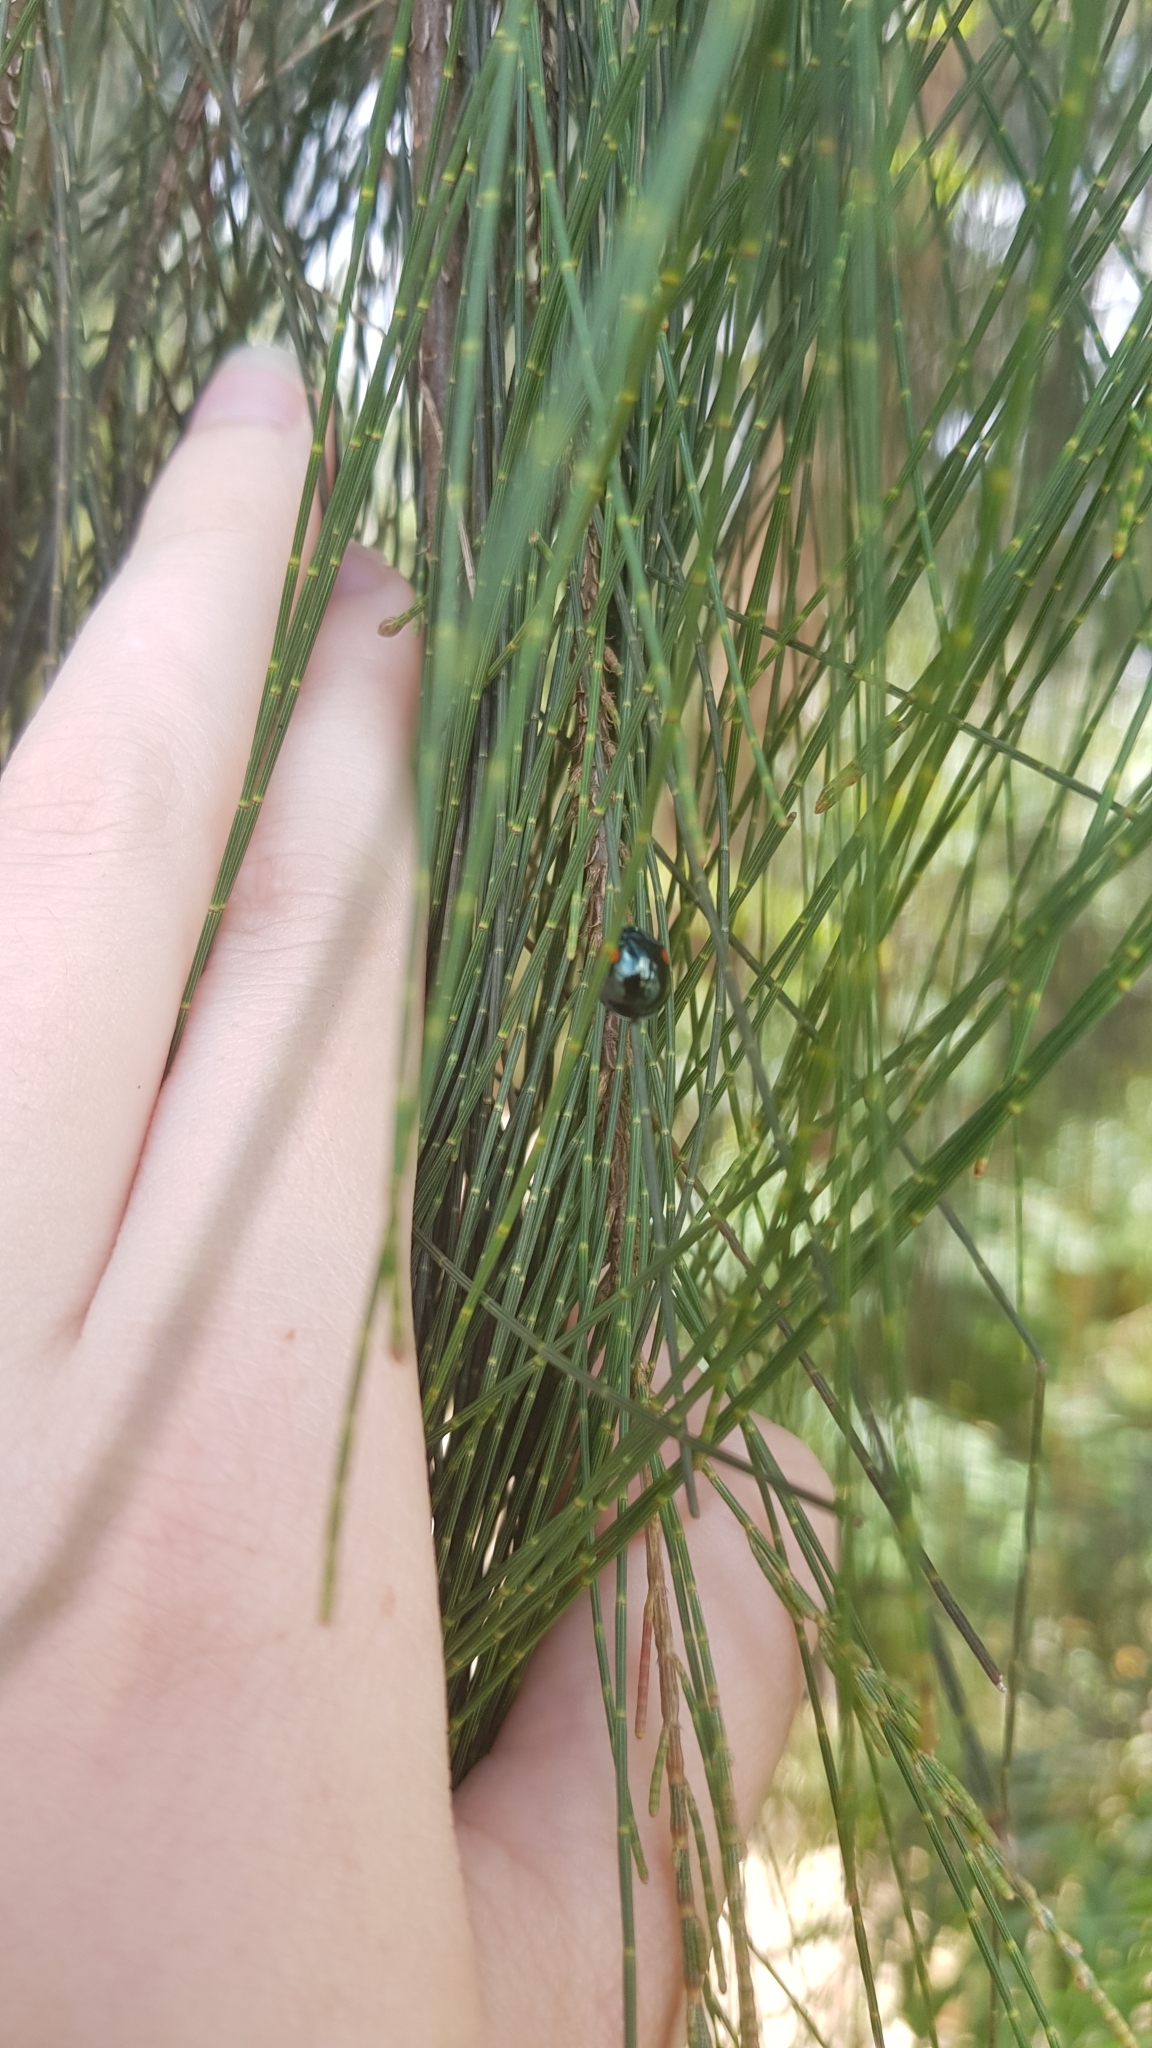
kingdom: Animalia
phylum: Arthropoda
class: Insecta
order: Coleoptera
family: Coccinellidae
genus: Orcus
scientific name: Orcus
